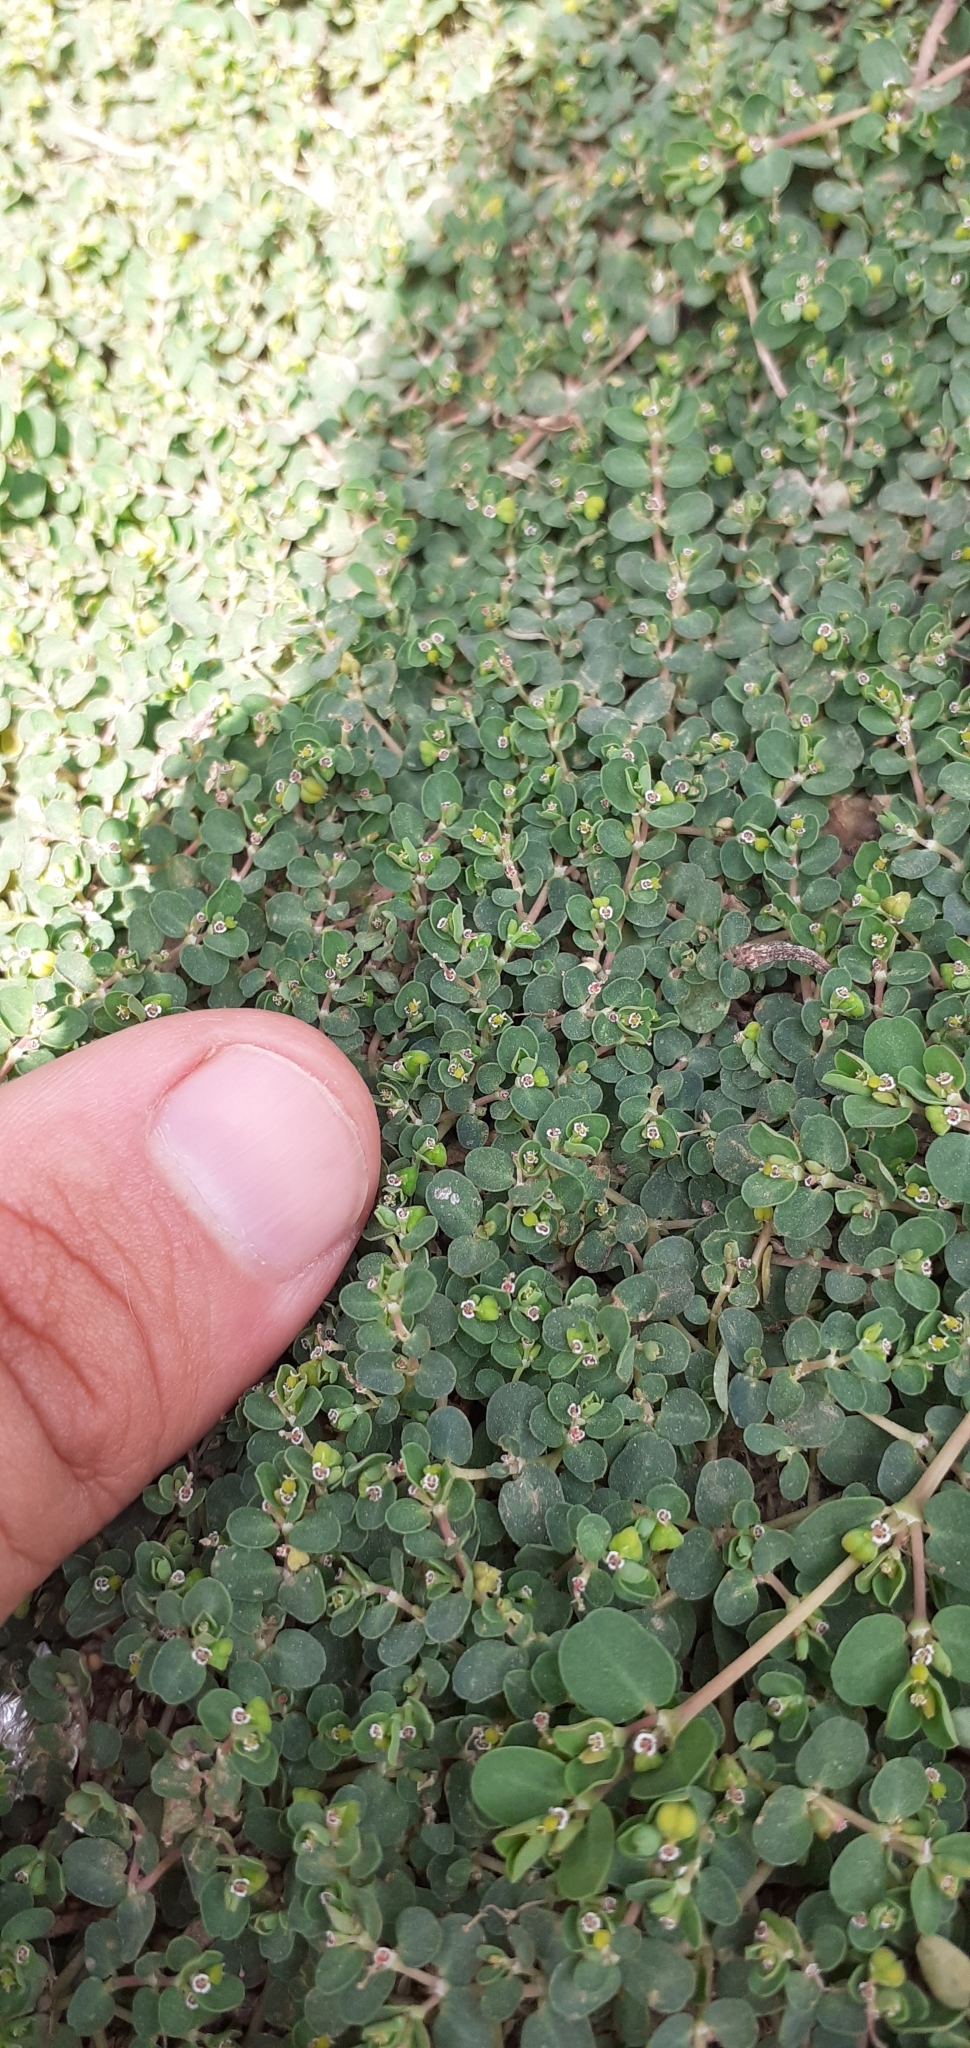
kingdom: Plantae
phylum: Tracheophyta
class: Magnoliopsida
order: Malpighiales
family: Euphorbiaceae
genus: Euphorbia
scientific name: Euphorbia serpens
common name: Matted sandmat
